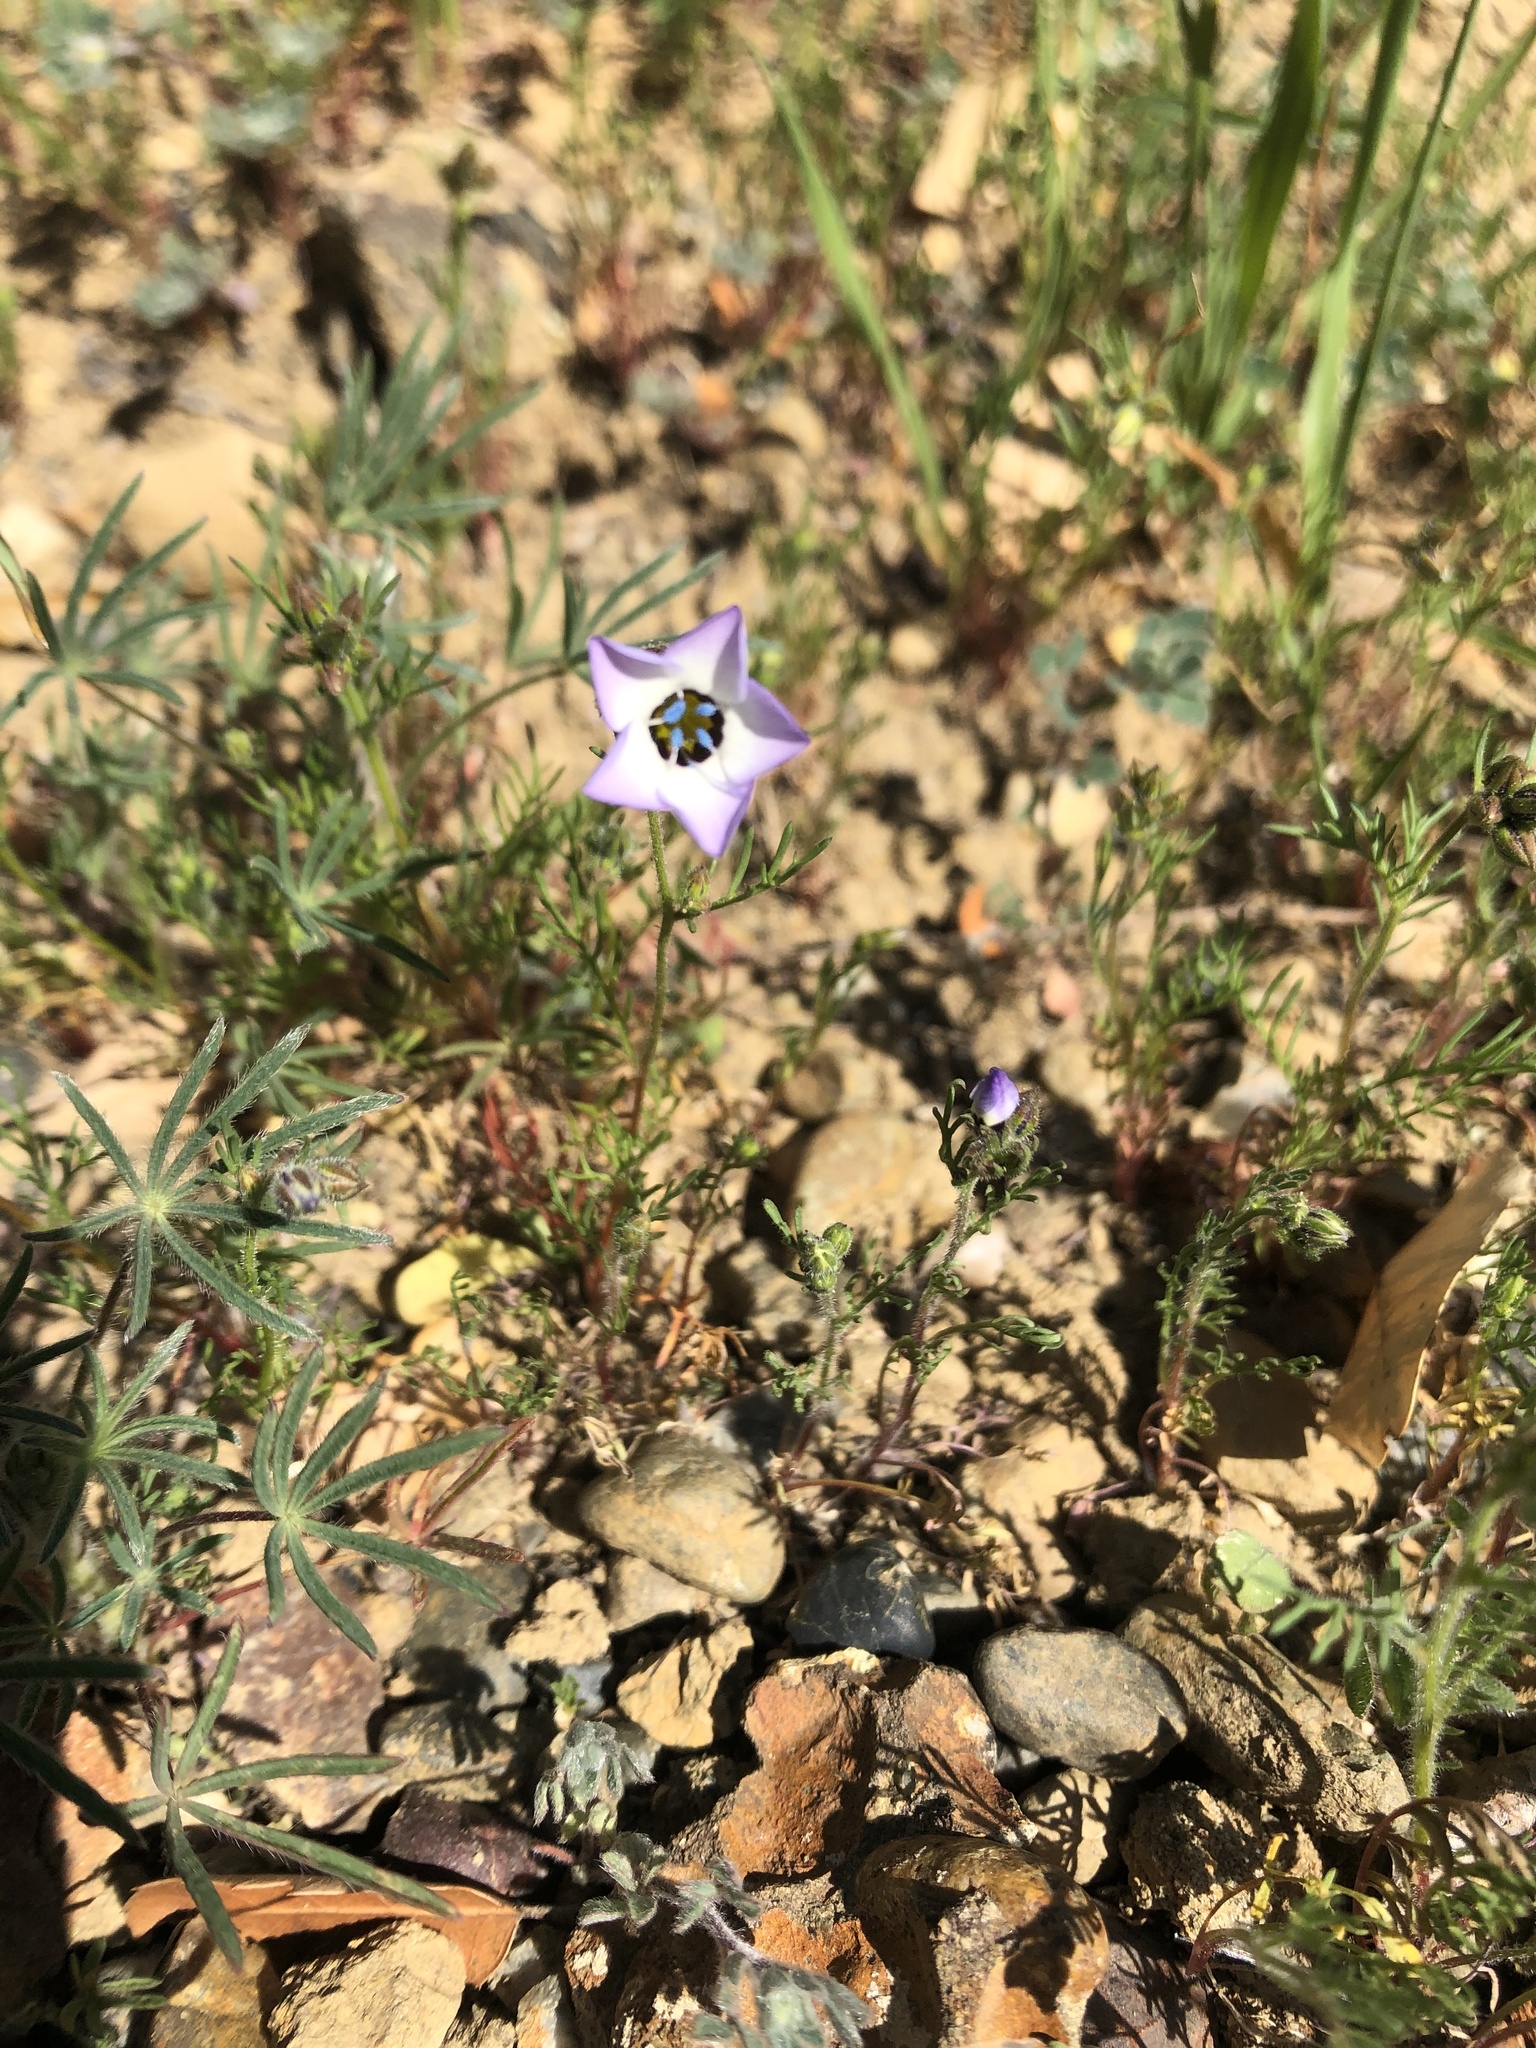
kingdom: Plantae
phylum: Tracheophyta
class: Magnoliopsida
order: Ericales
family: Polemoniaceae
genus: Gilia
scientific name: Gilia tricolor
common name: Bird's-eyes
